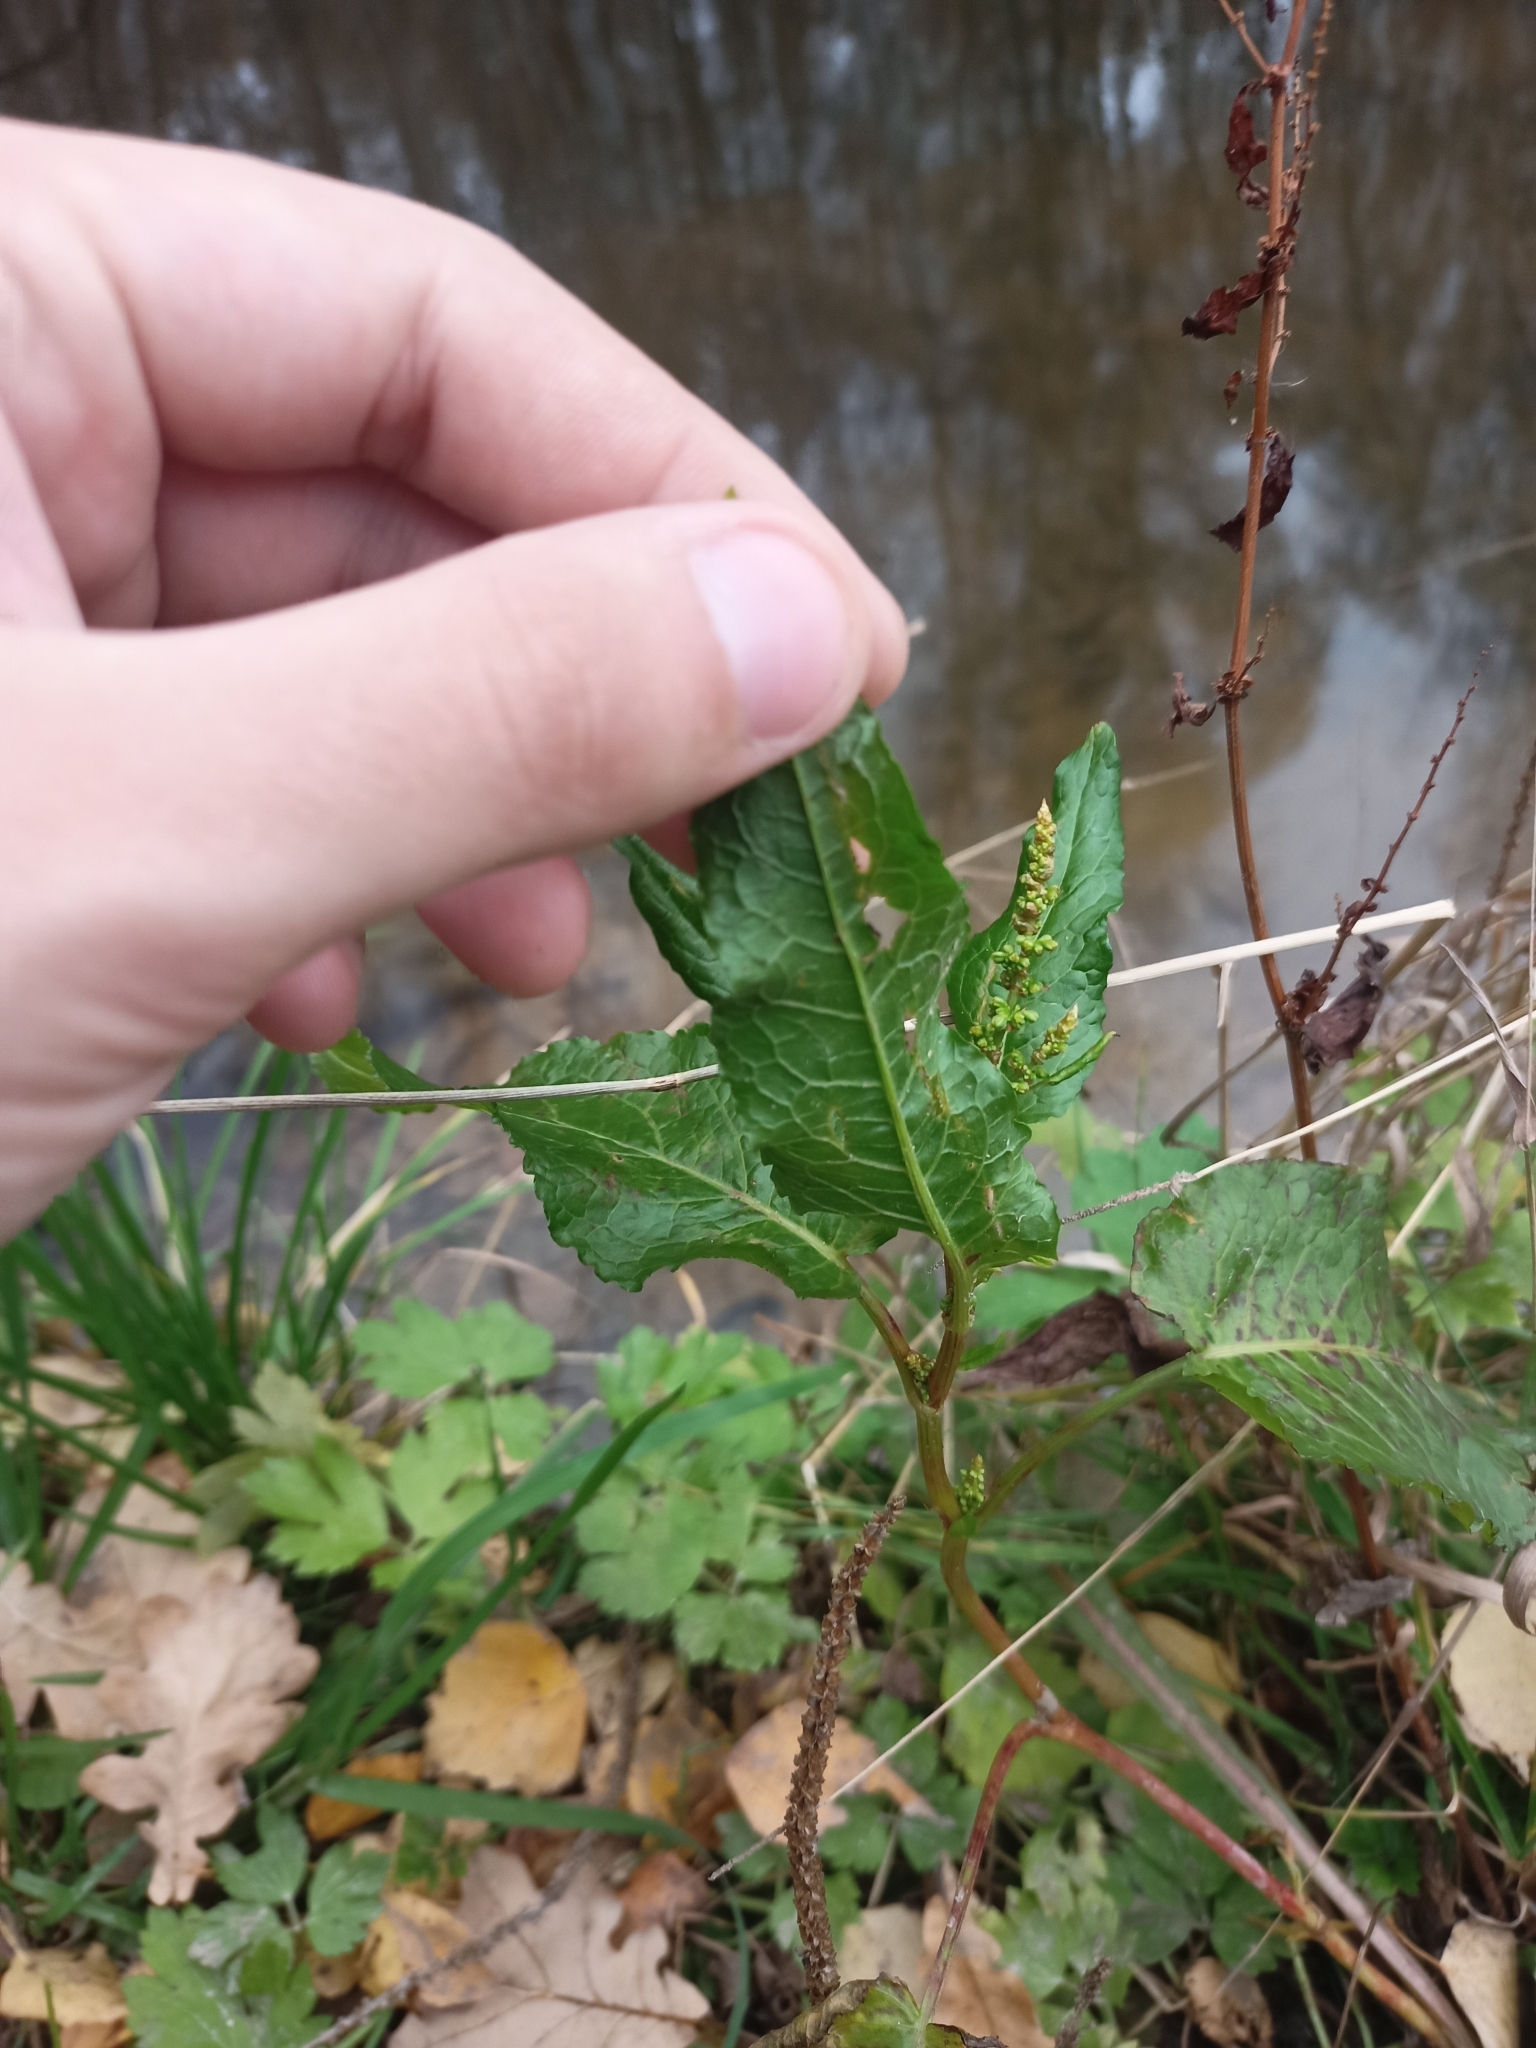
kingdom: Plantae
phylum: Tracheophyta
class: Magnoliopsida
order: Caryophyllales
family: Polygonaceae
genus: Rumex
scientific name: Rumex obtusifolius
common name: Bitter dock
